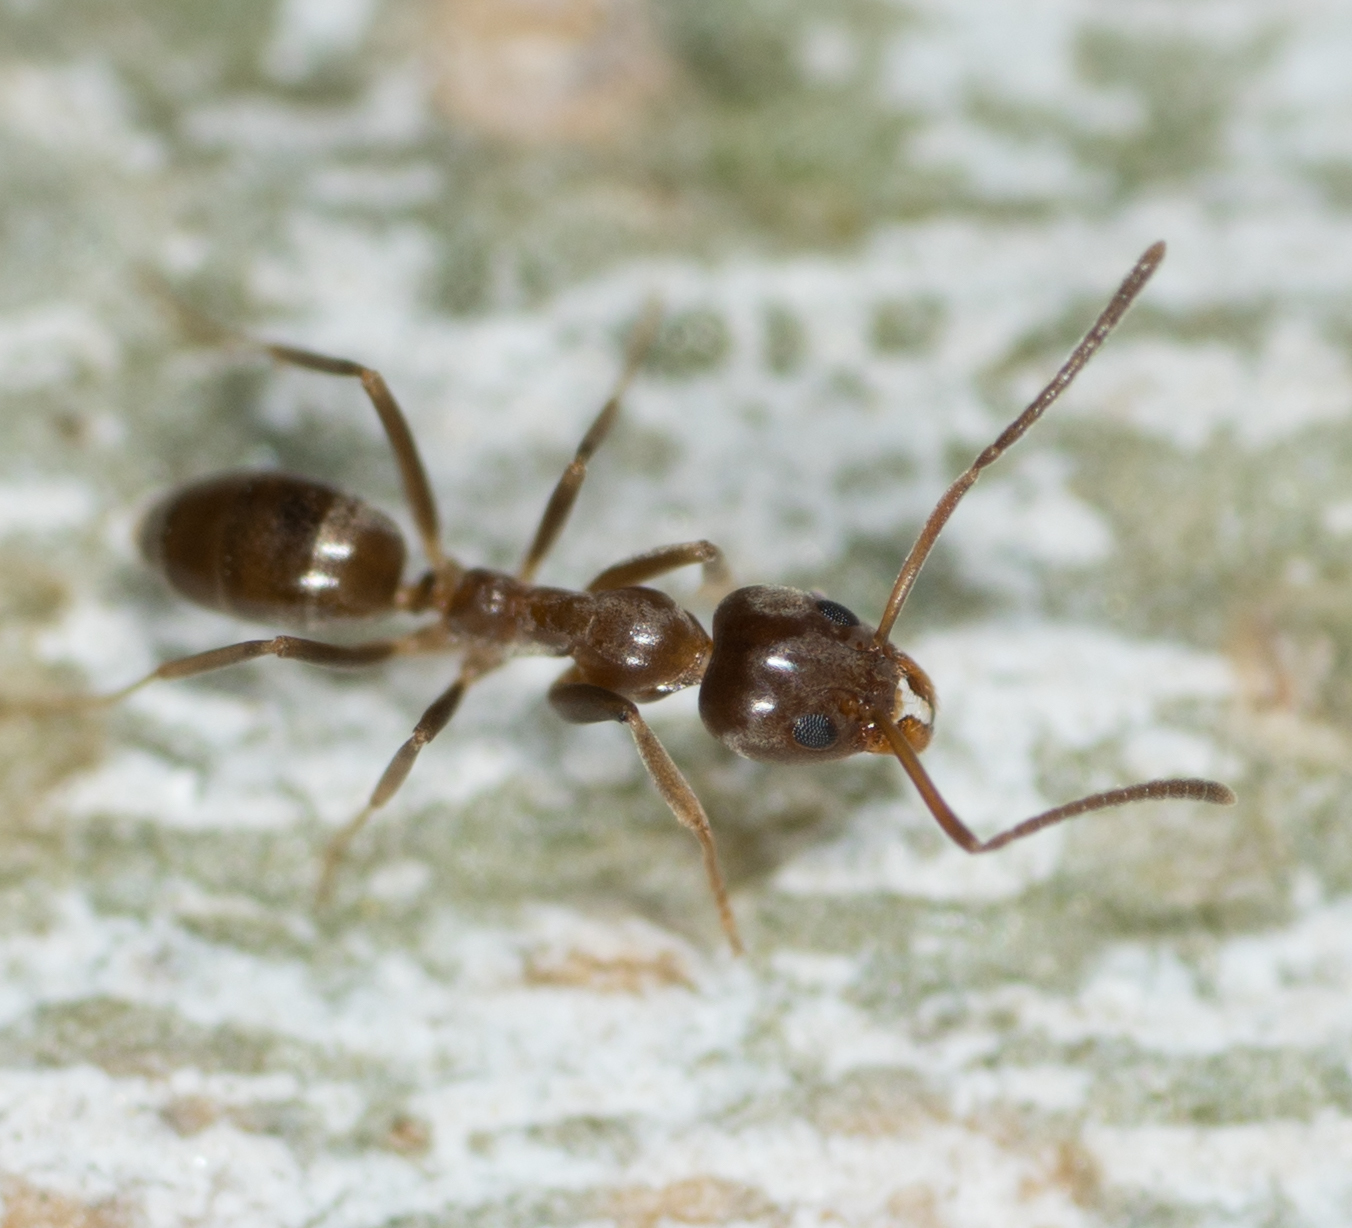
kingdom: Animalia
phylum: Arthropoda
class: Insecta
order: Hymenoptera
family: Formicidae
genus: Linepithema
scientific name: Linepithema humile
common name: Argentine ant
